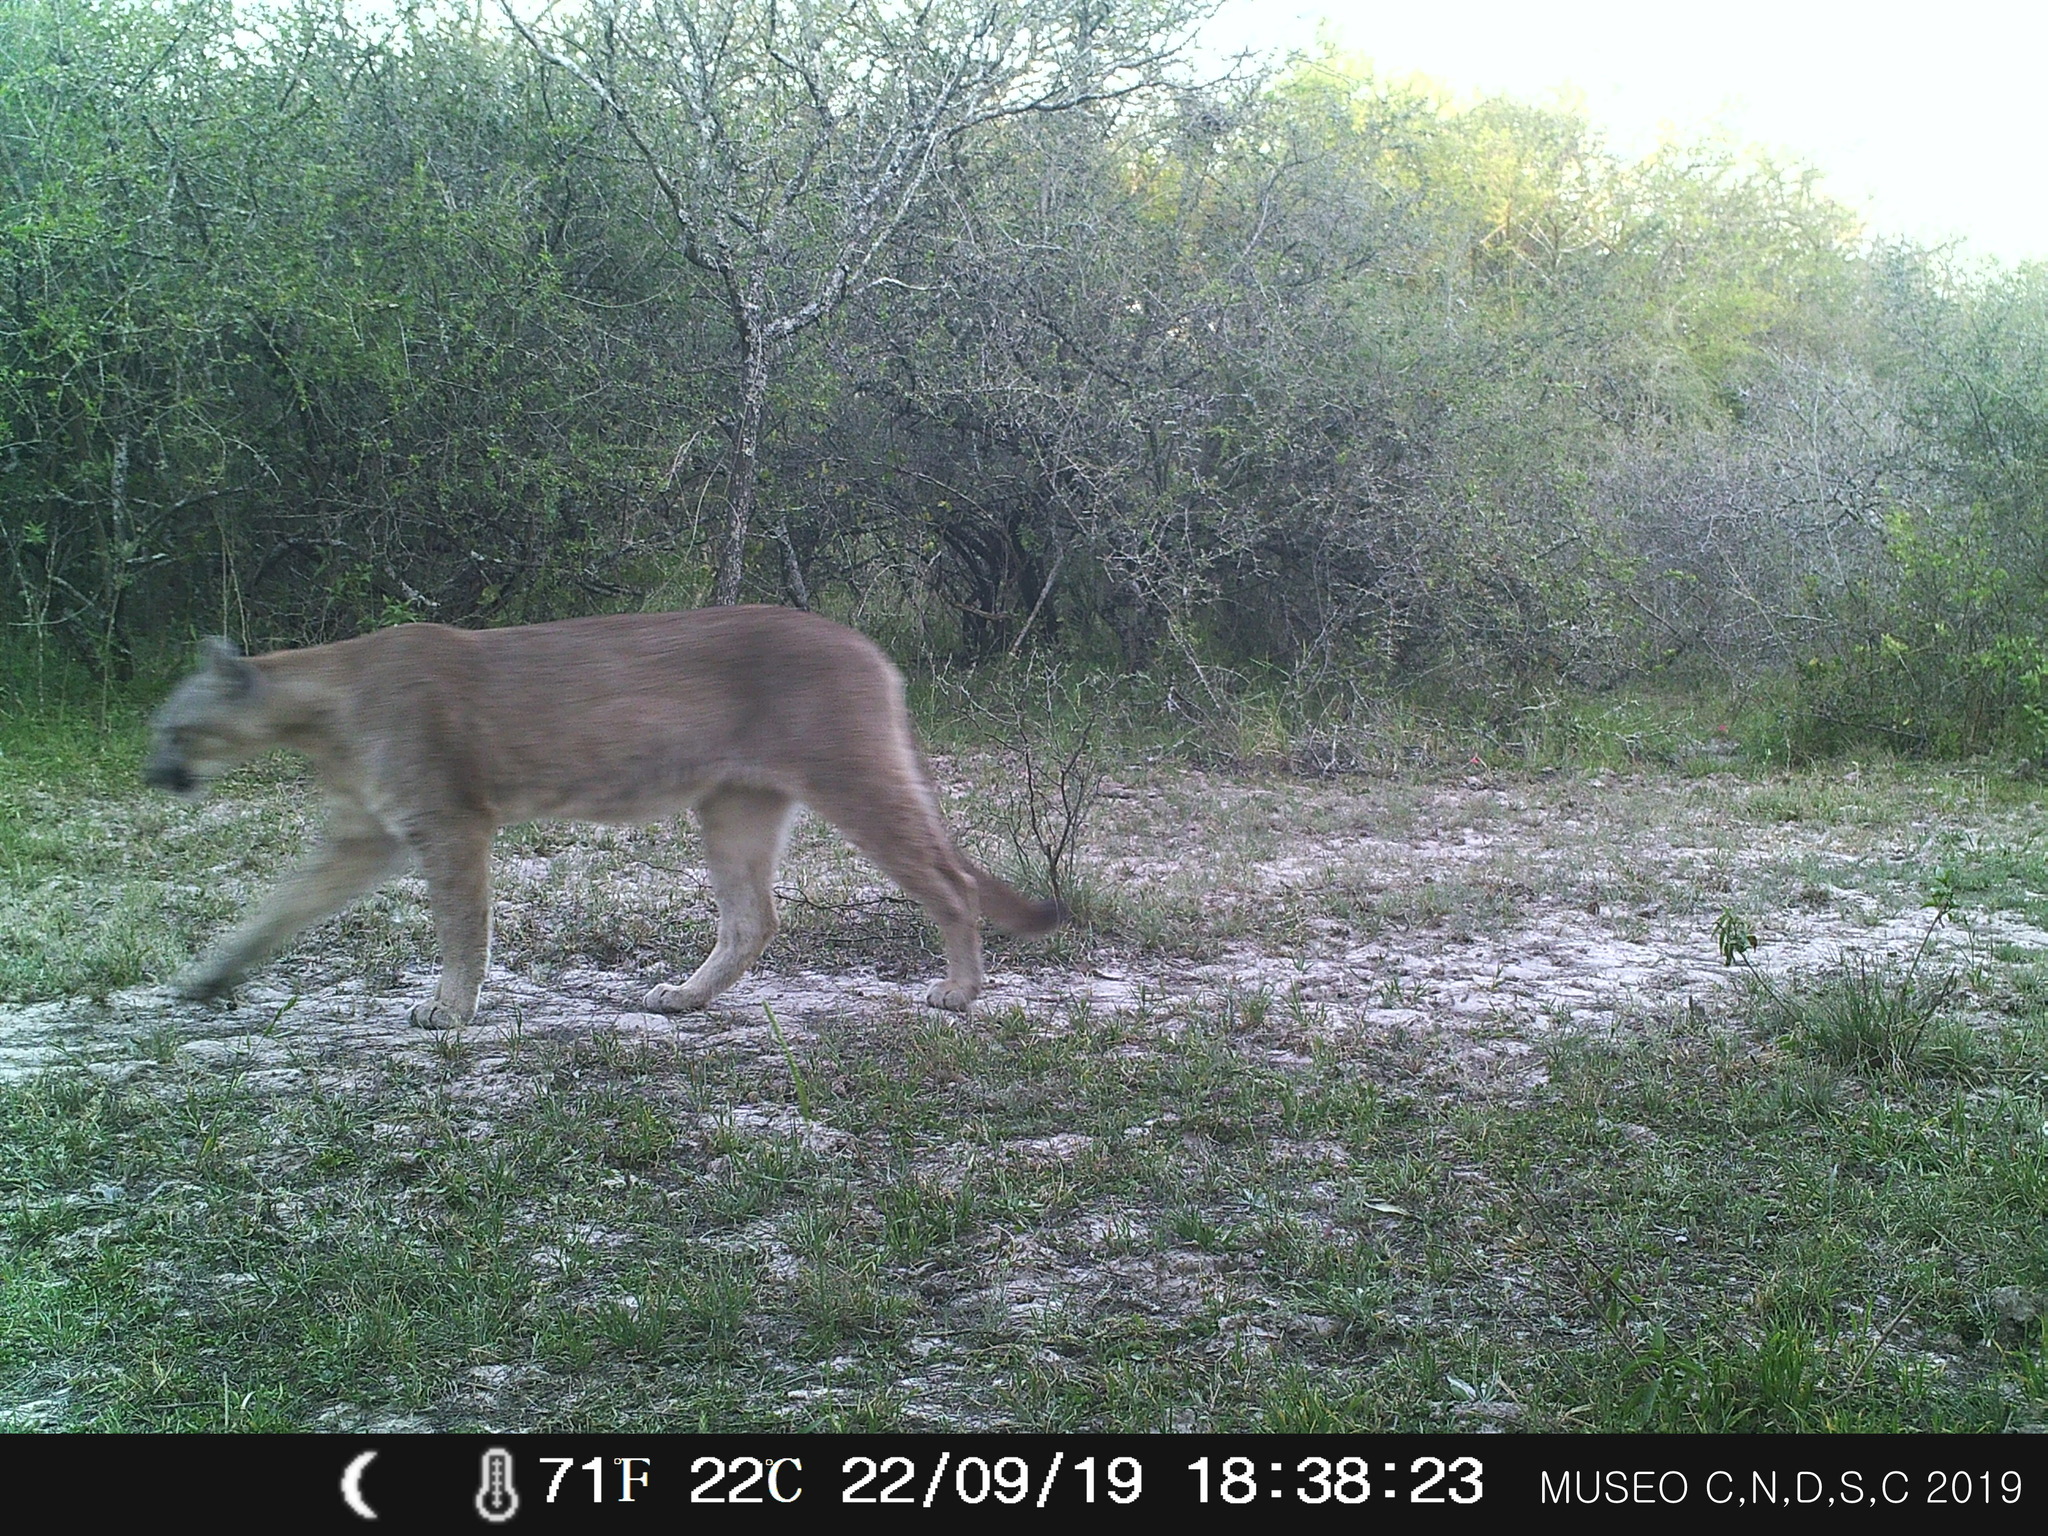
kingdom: Animalia
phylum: Chordata
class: Mammalia
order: Carnivora
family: Felidae
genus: Puma
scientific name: Puma concolor
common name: Puma
